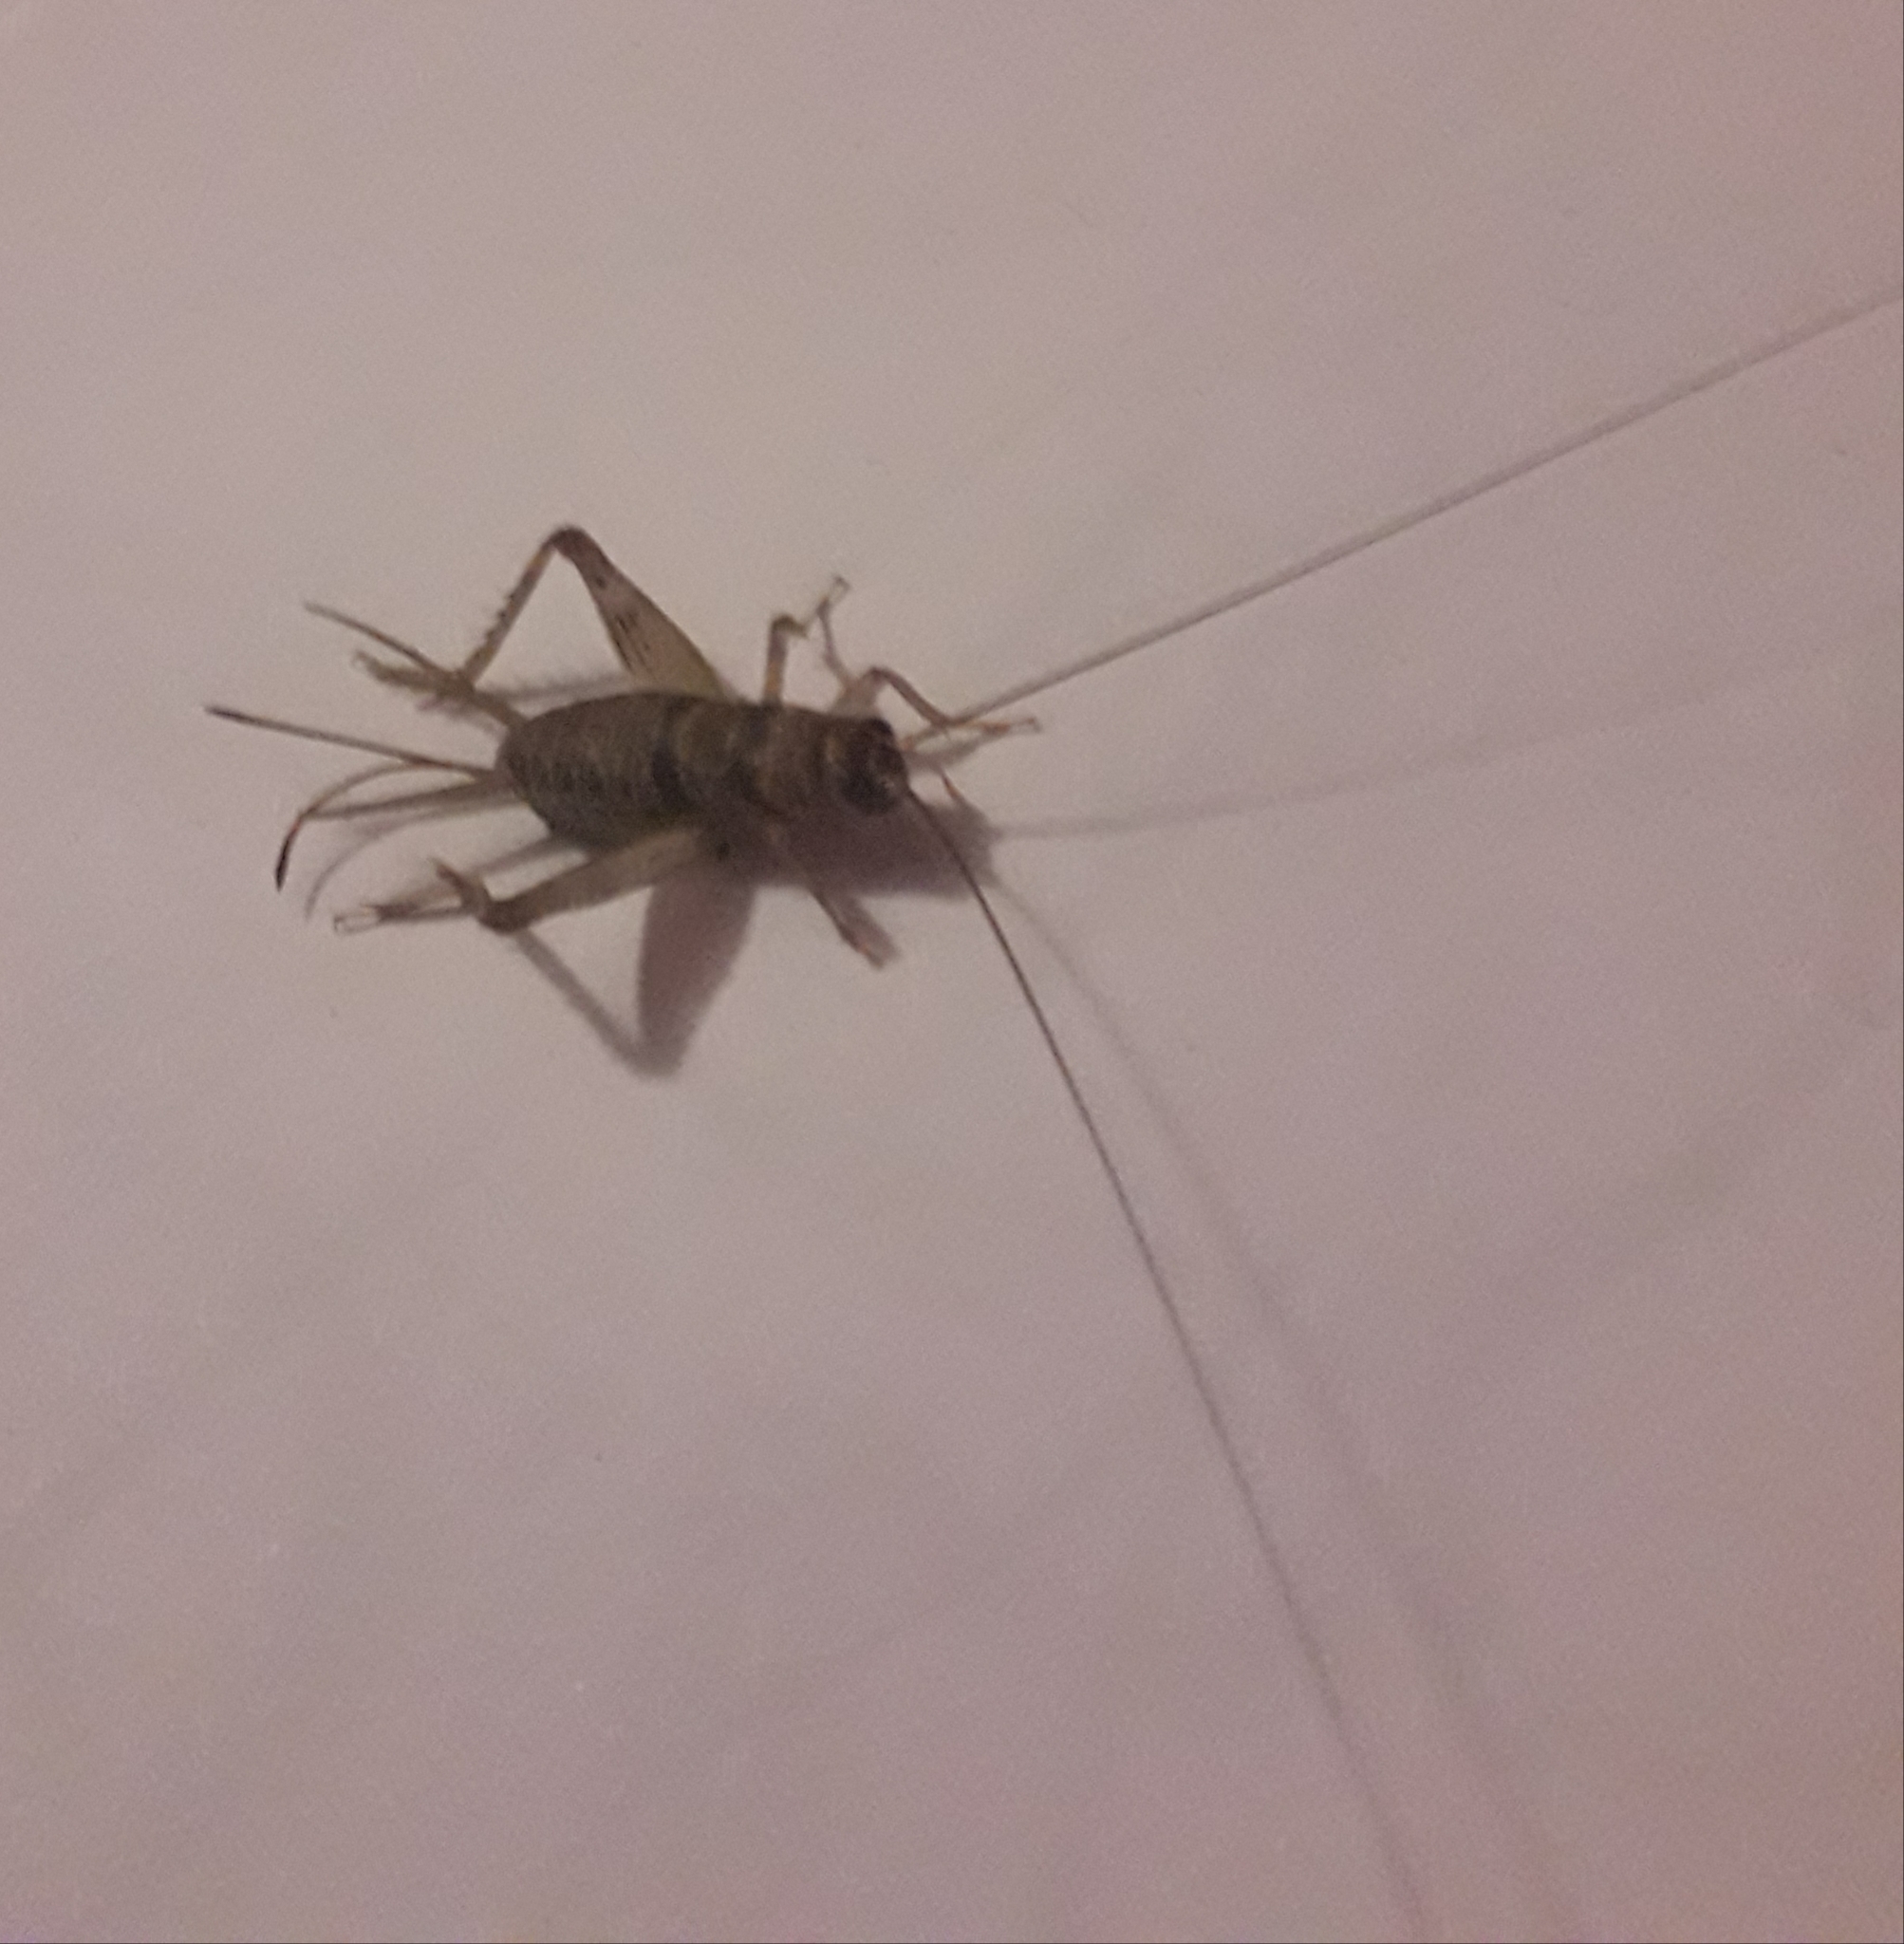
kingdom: Animalia
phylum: Arthropoda
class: Insecta
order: Orthoptera
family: Gryllidae
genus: Gryllodes
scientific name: Gryllodes sigillatus
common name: Tropical house cricket
